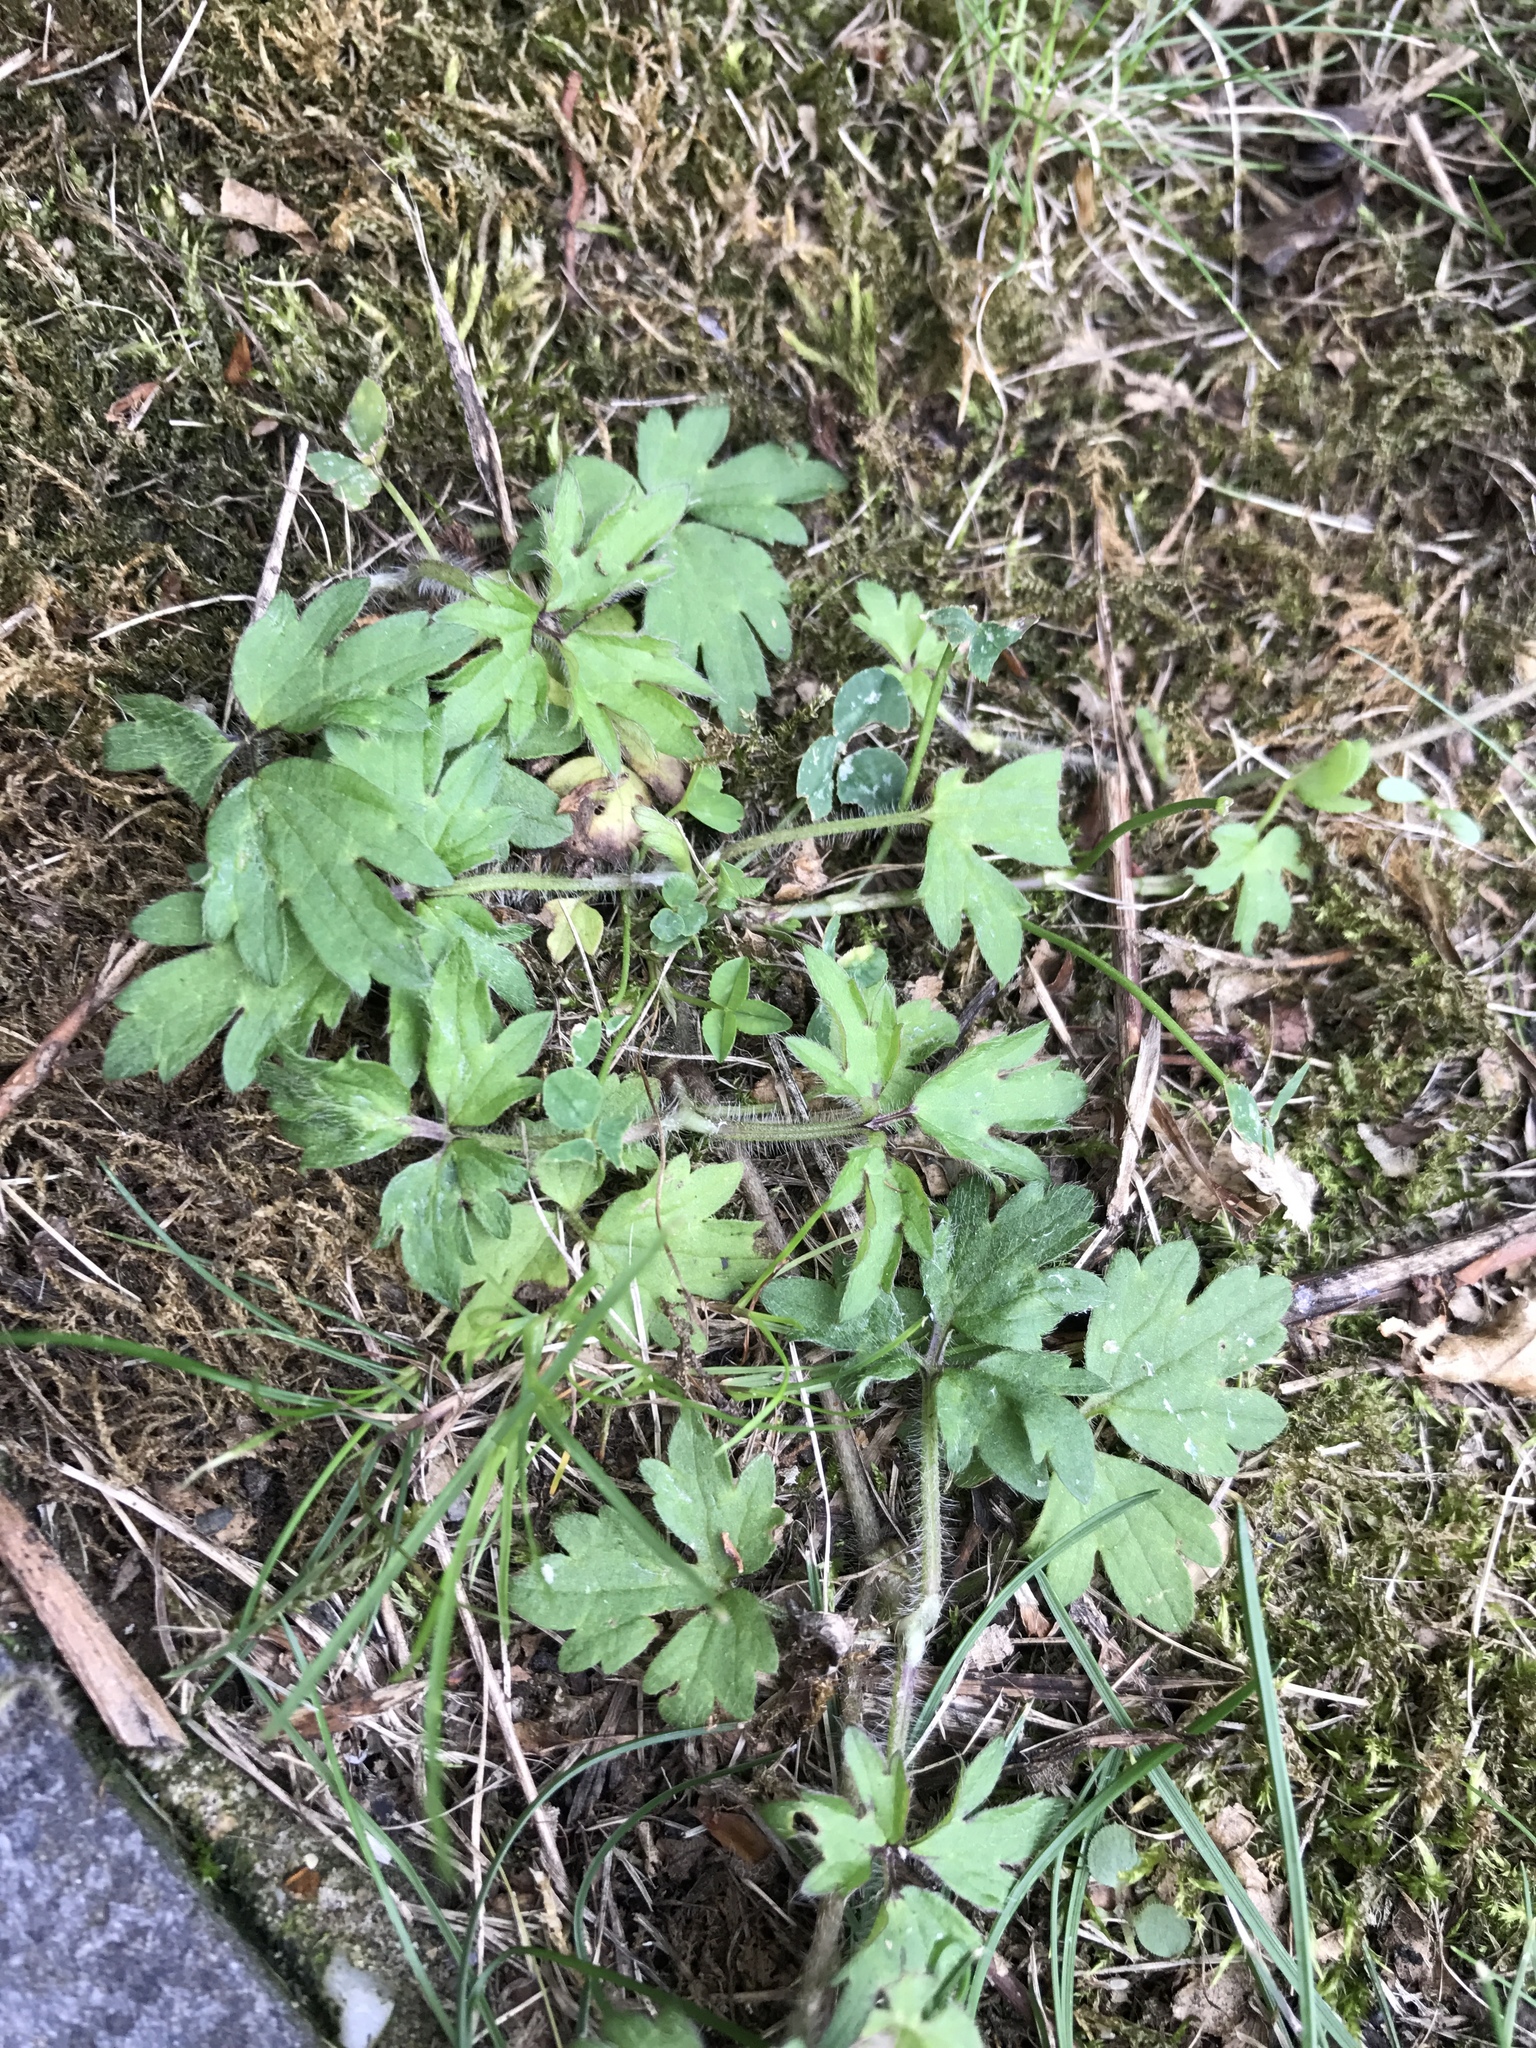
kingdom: Plantae
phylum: Tracheophyta
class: Magnoliopsida
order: Ranunculales
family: Ranunculaceae
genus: Ranunculus
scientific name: Ranunculus repens
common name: Creeping buttercup
